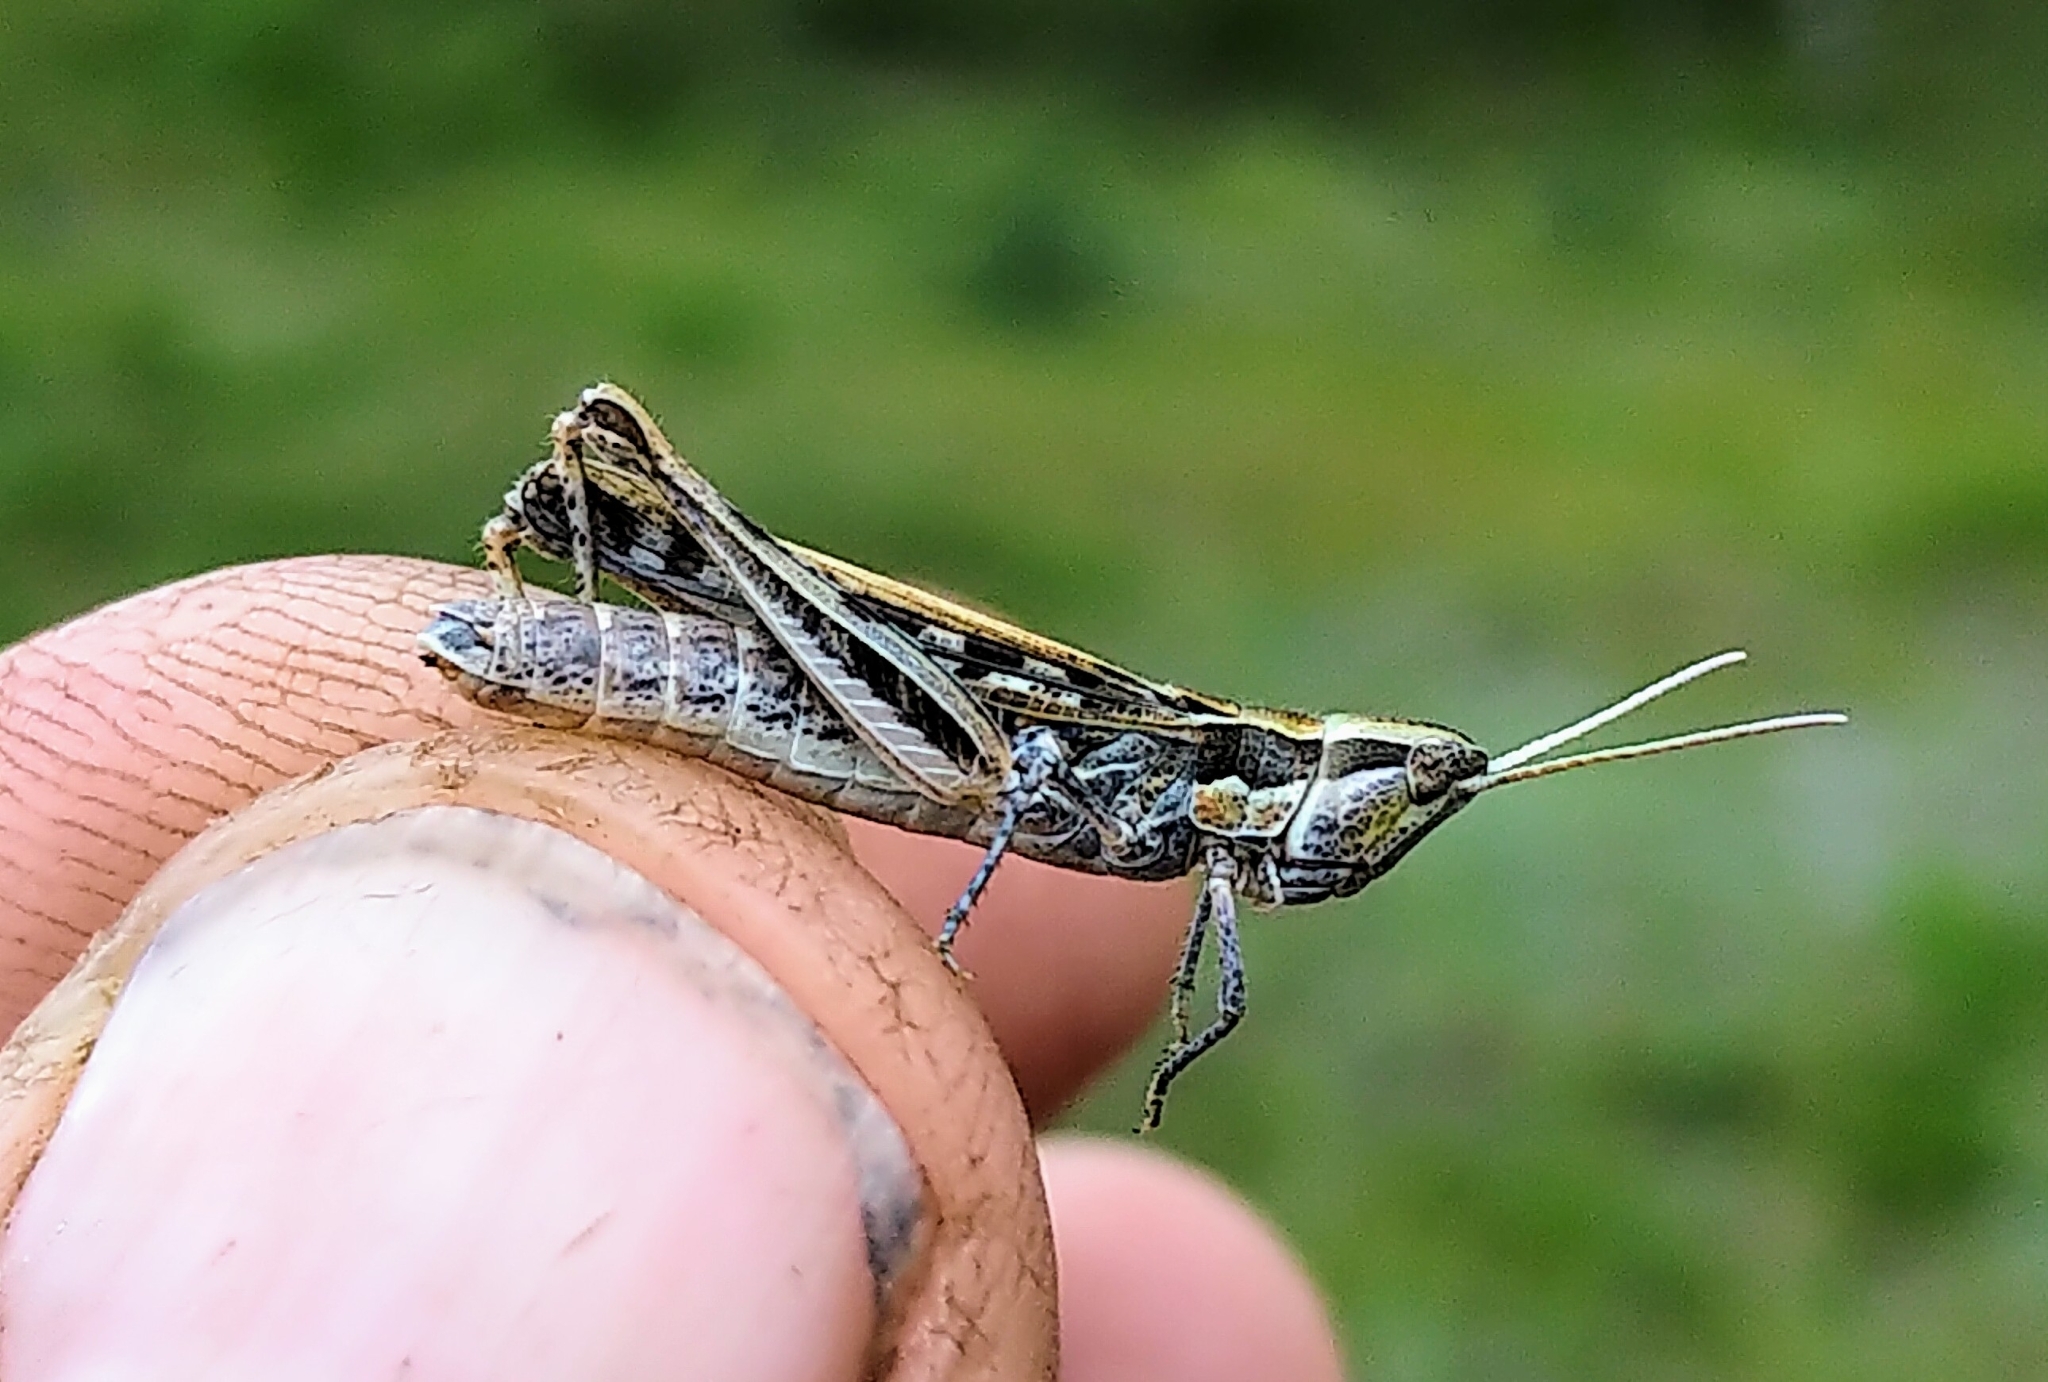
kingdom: Animalia
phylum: Arthropoda
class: Insecta
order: Orthoptera
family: Acrididae
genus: Cordillacris
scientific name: Cordillacris occipitalis
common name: Spotted-winged grasshopper
